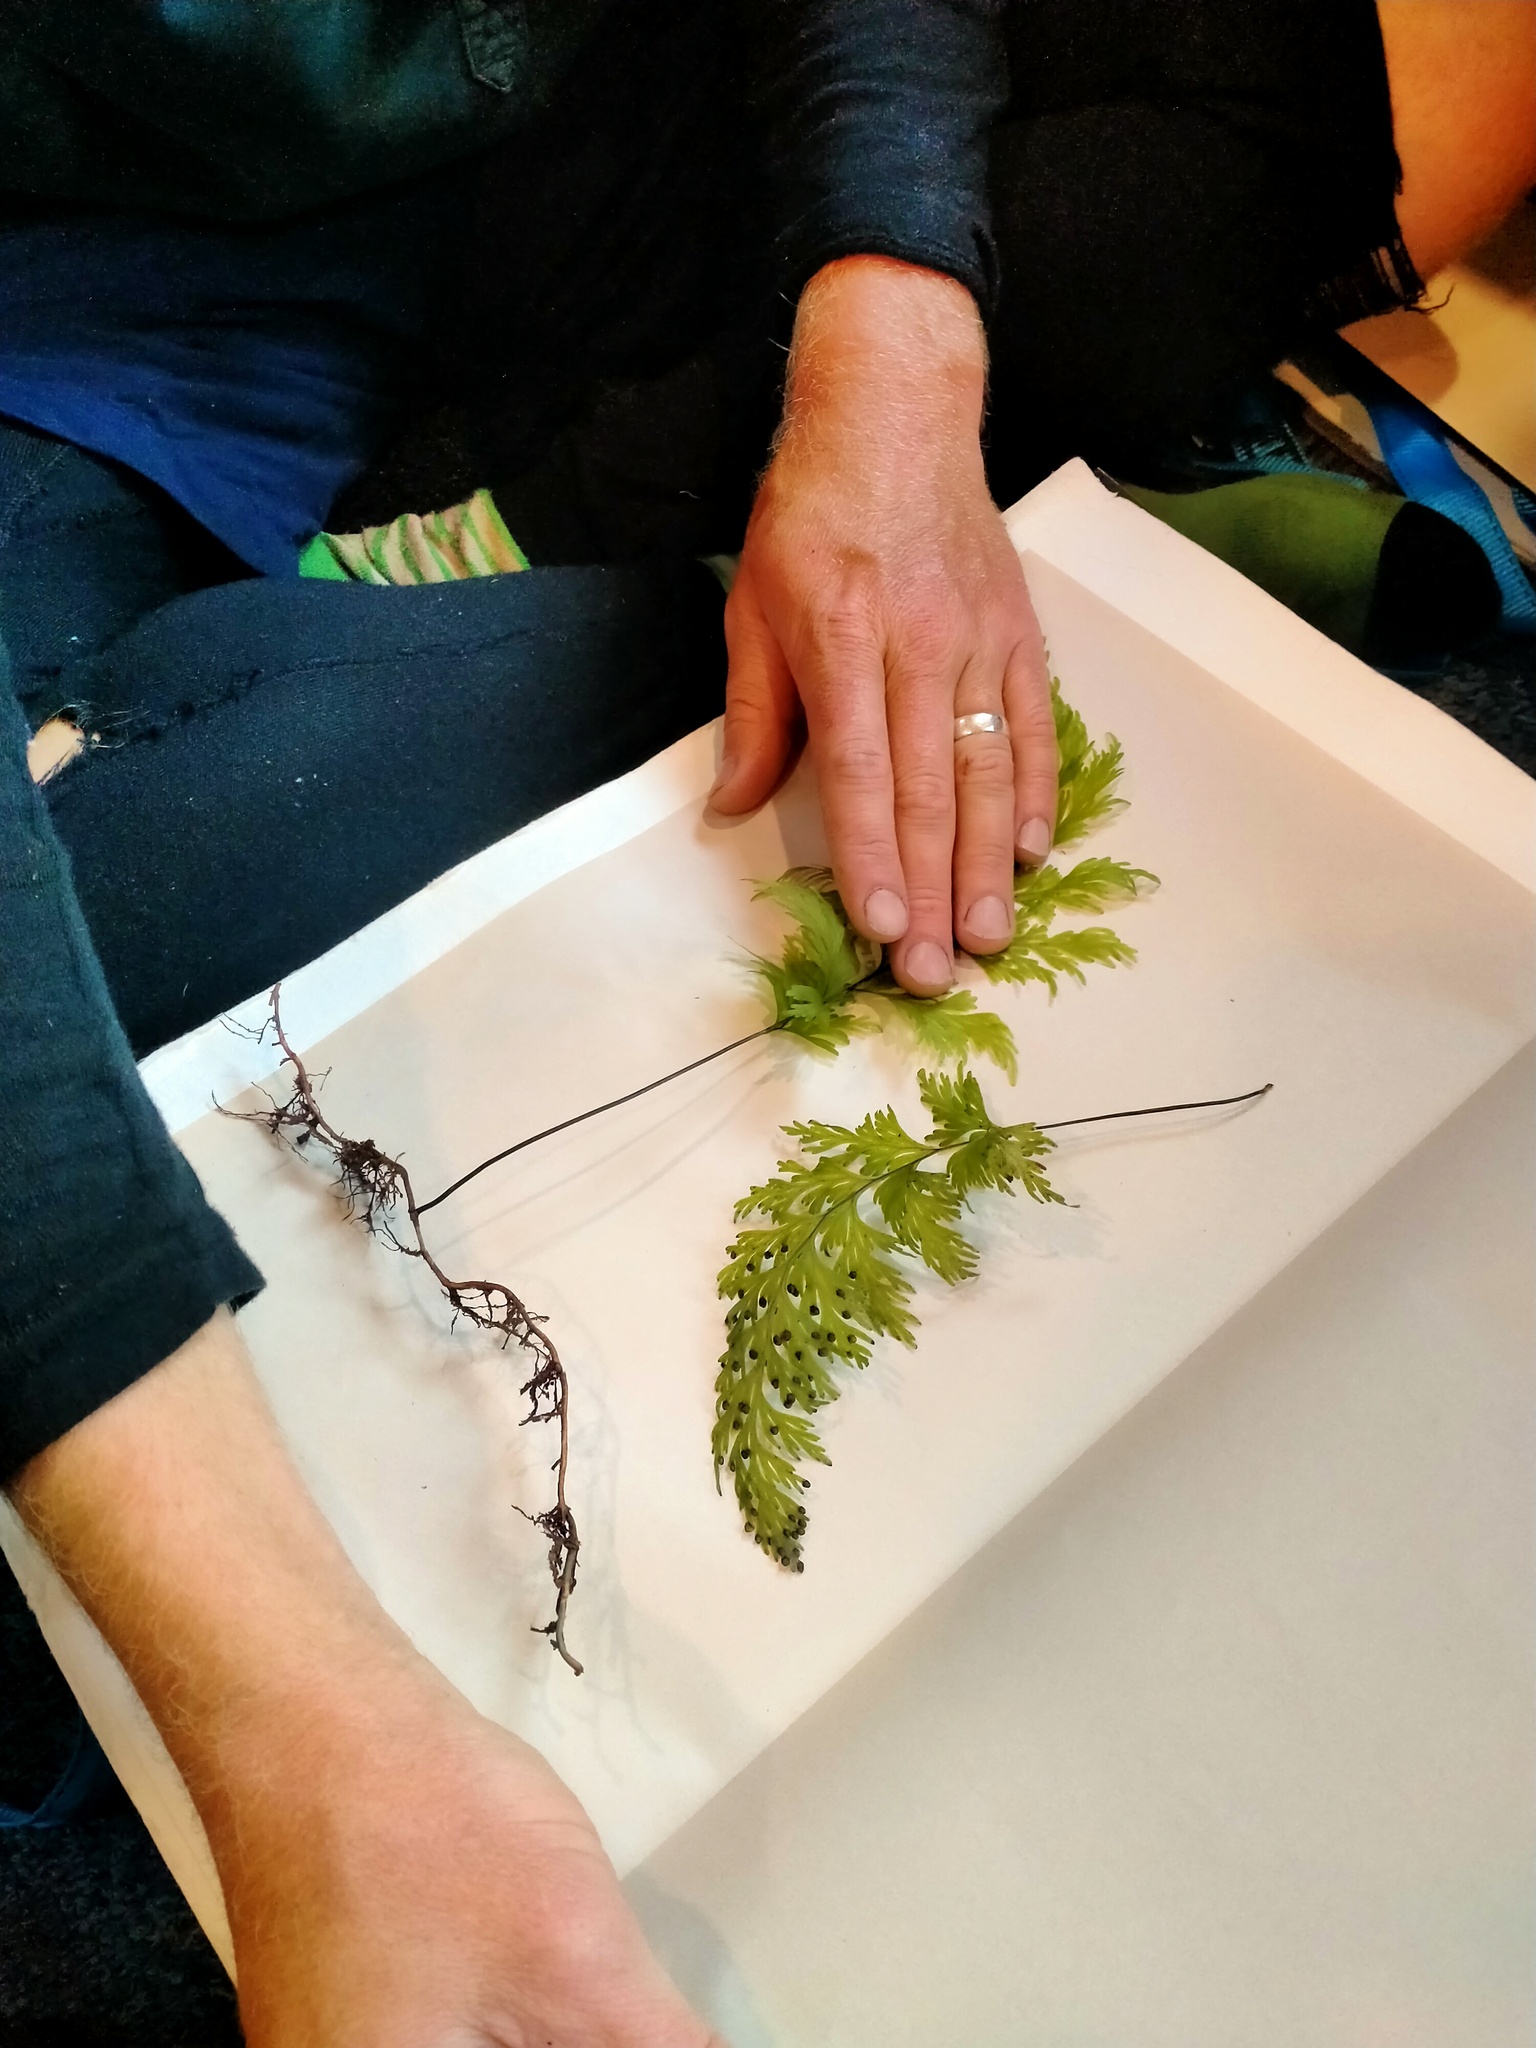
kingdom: Plantae
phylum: Tracheophyta
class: Polypodiopsida
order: Hymenophyllales
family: Hymenophyllaceae
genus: Hymenophyllum
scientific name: Hymenophyllum dilatatum
